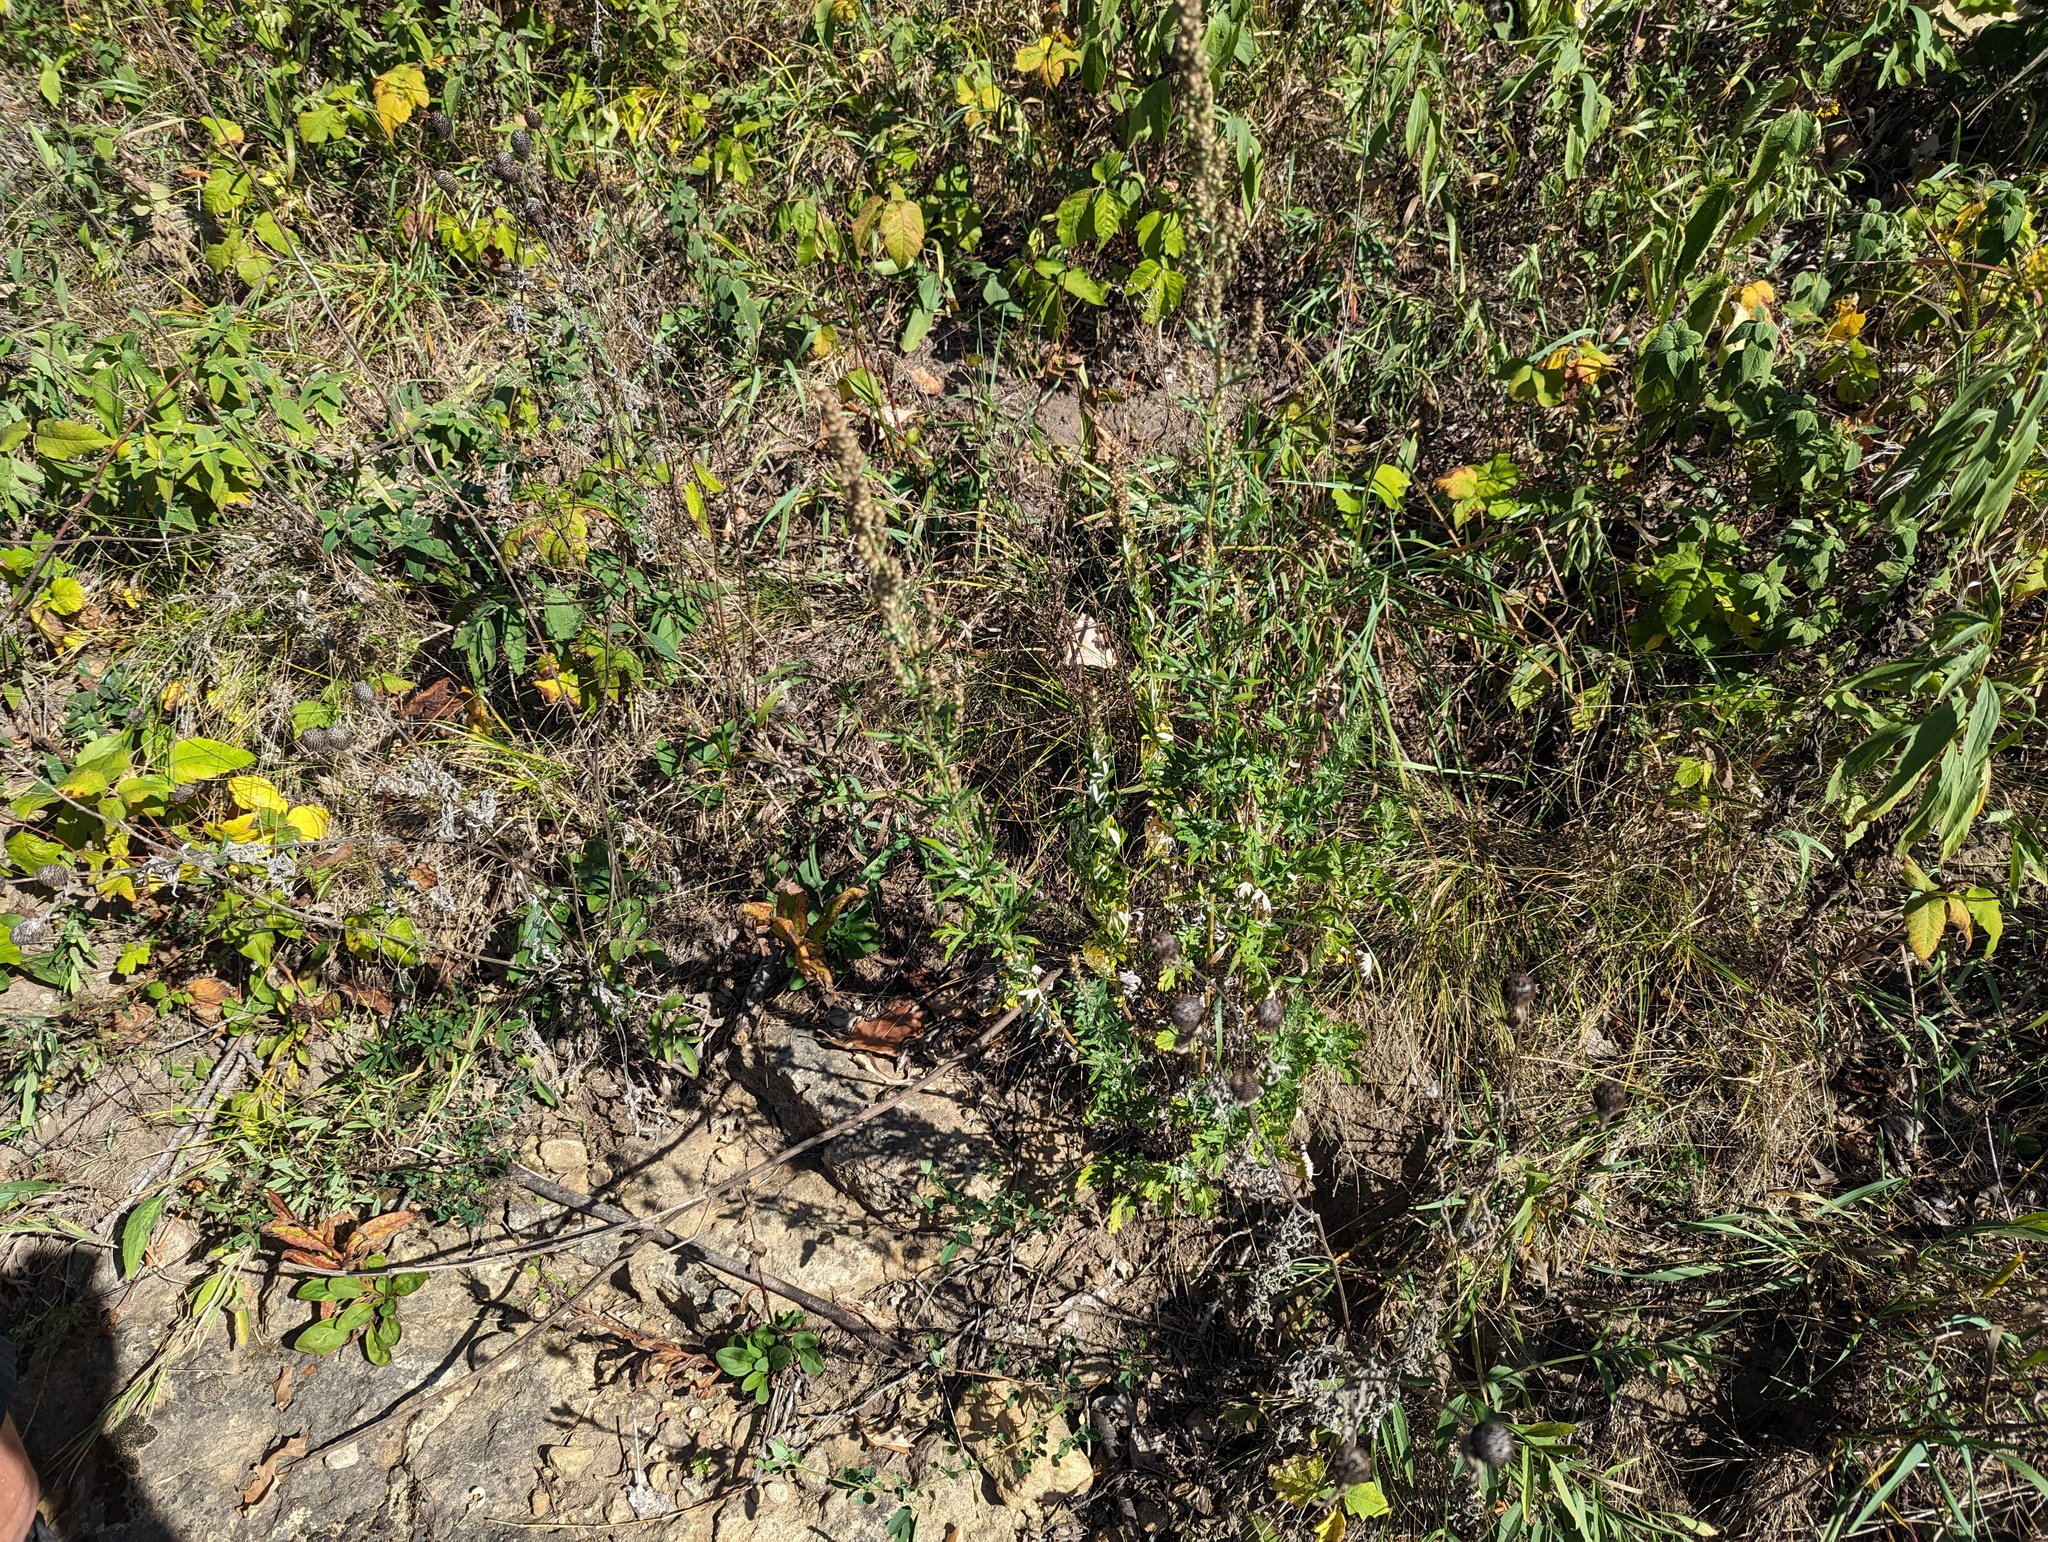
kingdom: Plantae
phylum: Tracheophyta
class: Magnoliopsida
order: Asterales
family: Asteraceae
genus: Artemisia
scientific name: Artemisia vulgaris
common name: Mugwort
